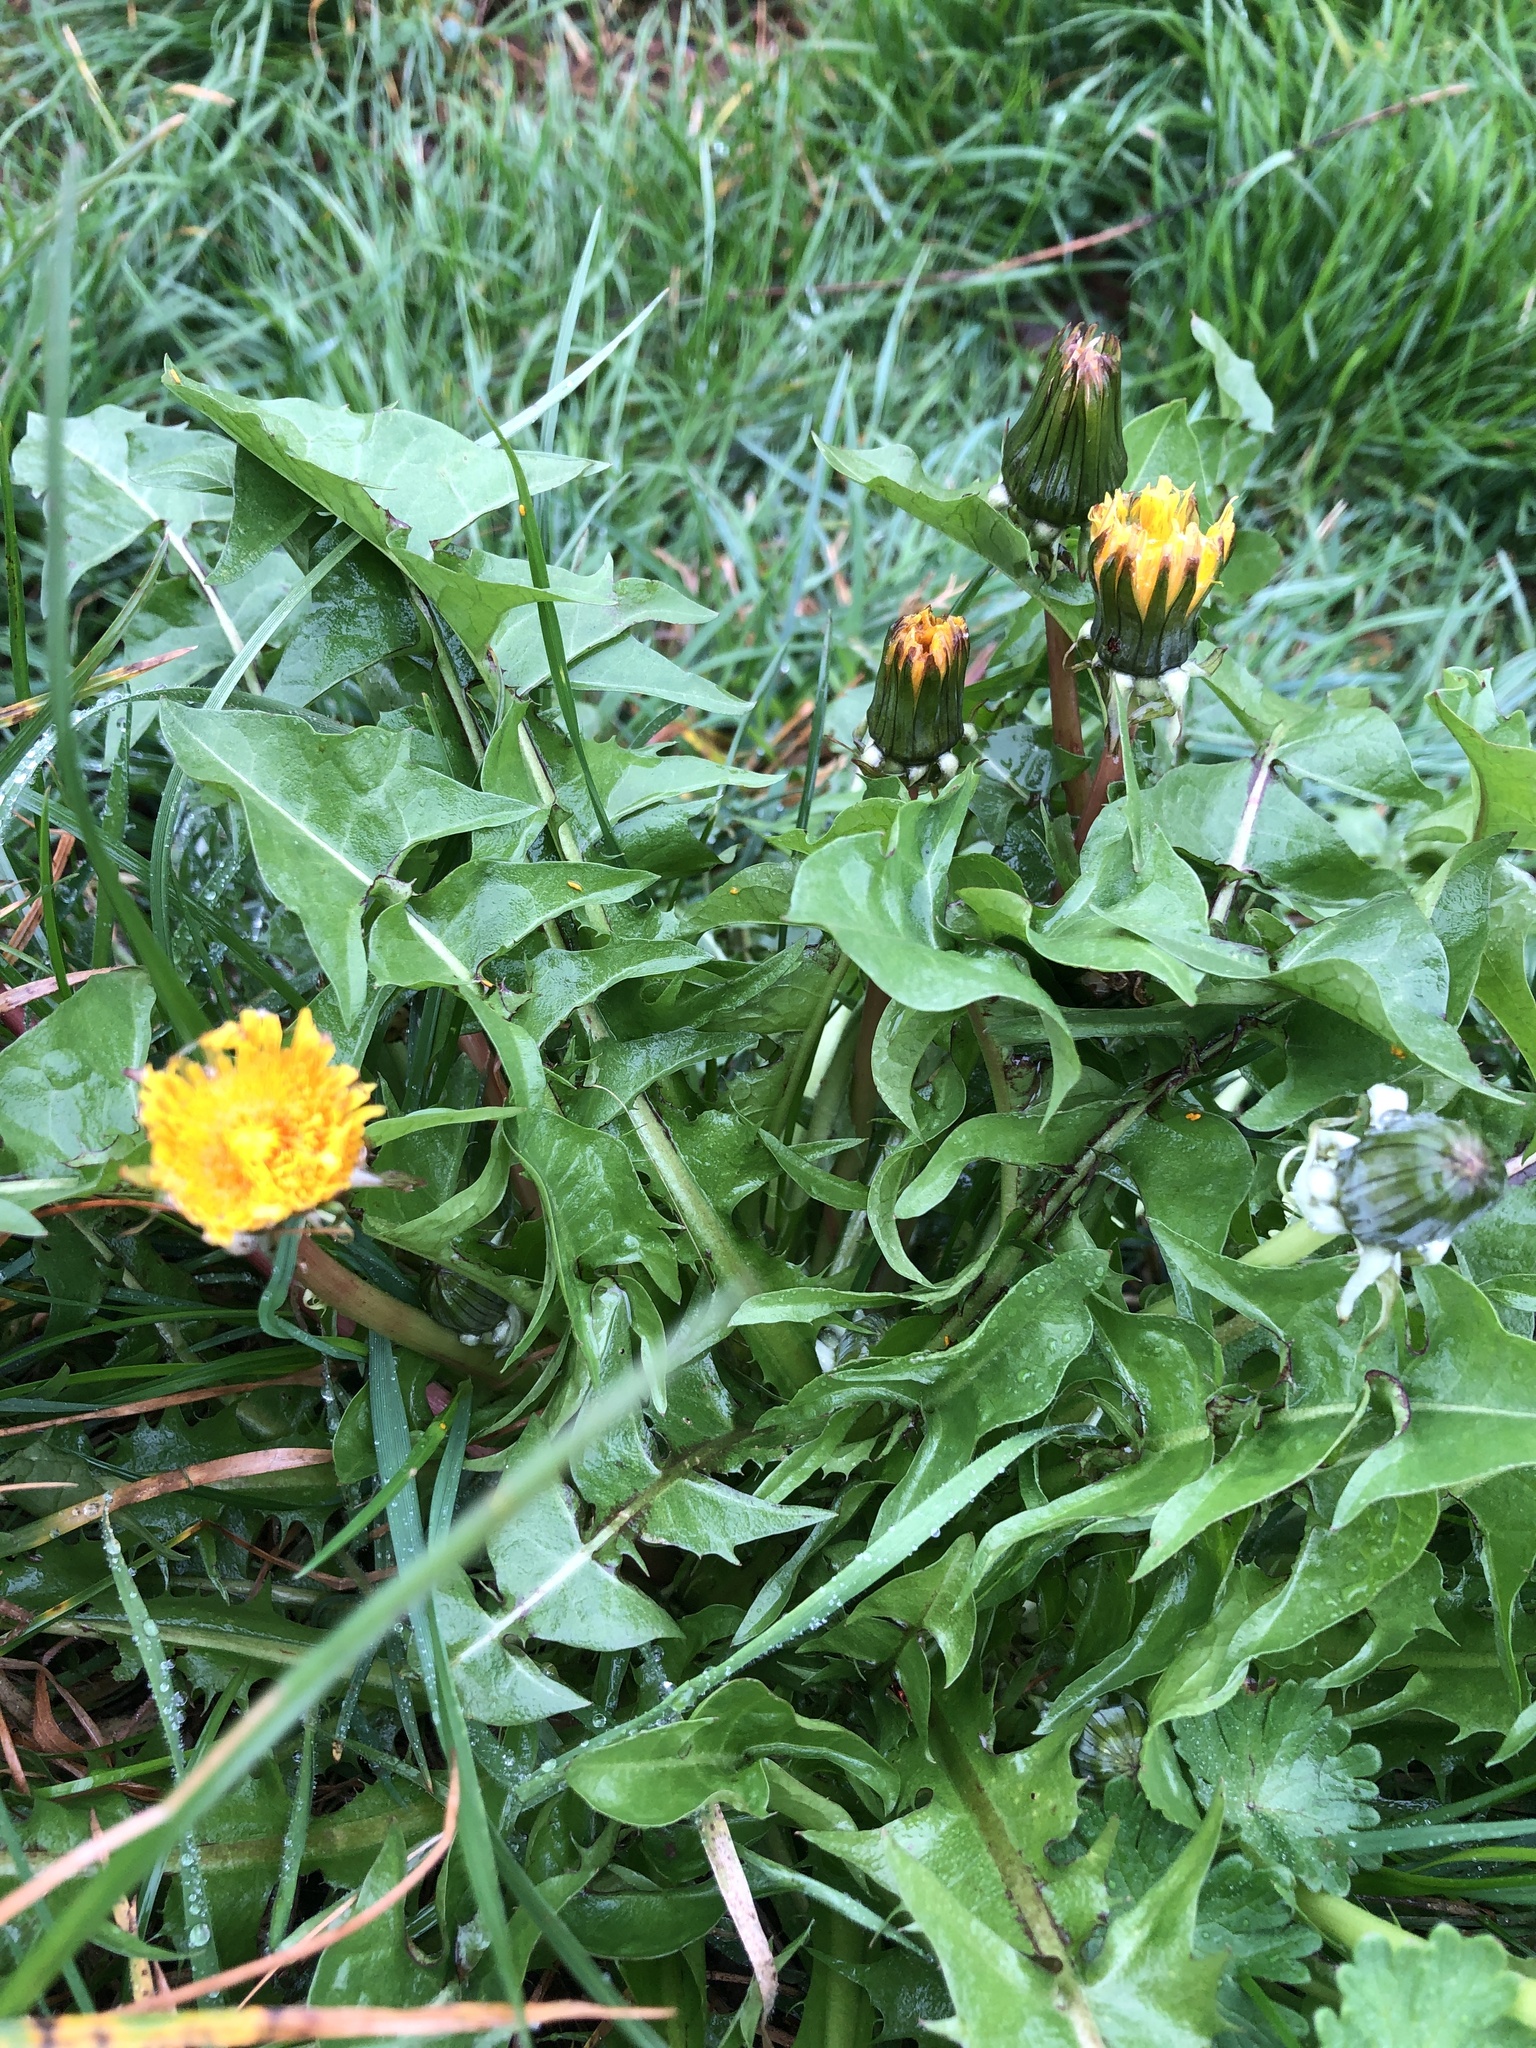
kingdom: Plantae
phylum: Tracheophyta
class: Magnoliopsida
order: Asterales
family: Asteraceae
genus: Taraxacum
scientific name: Taraxacum officinale
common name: Common dandelion
